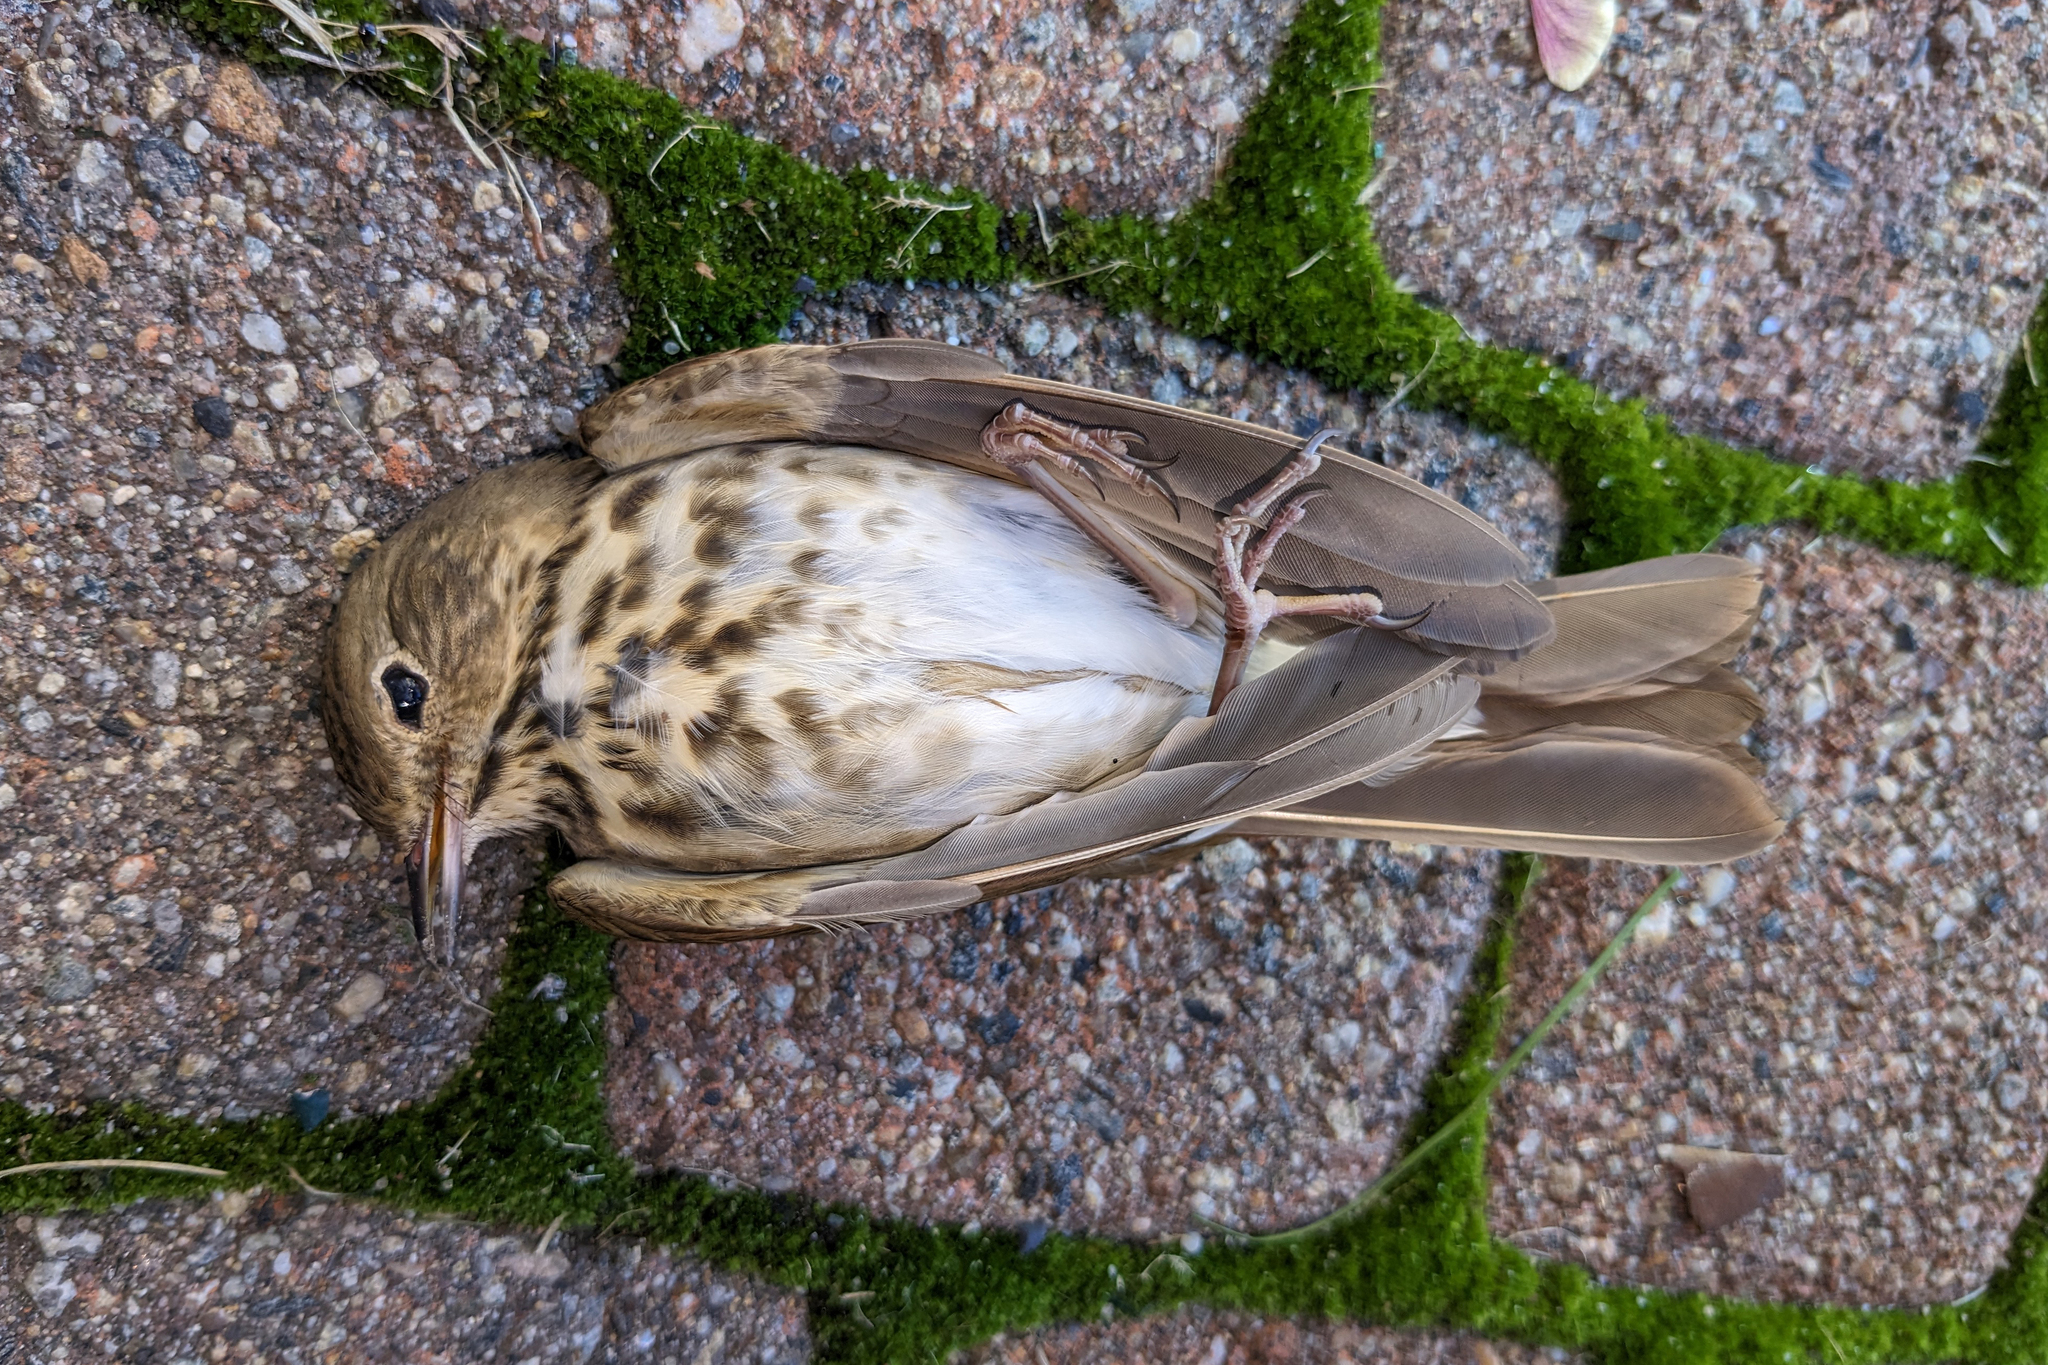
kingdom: Animalia
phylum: Chordata
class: Aves
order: Passeriformes
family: Turdidae
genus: Catharus
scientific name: Catharus guttatus
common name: Hermit thrush
